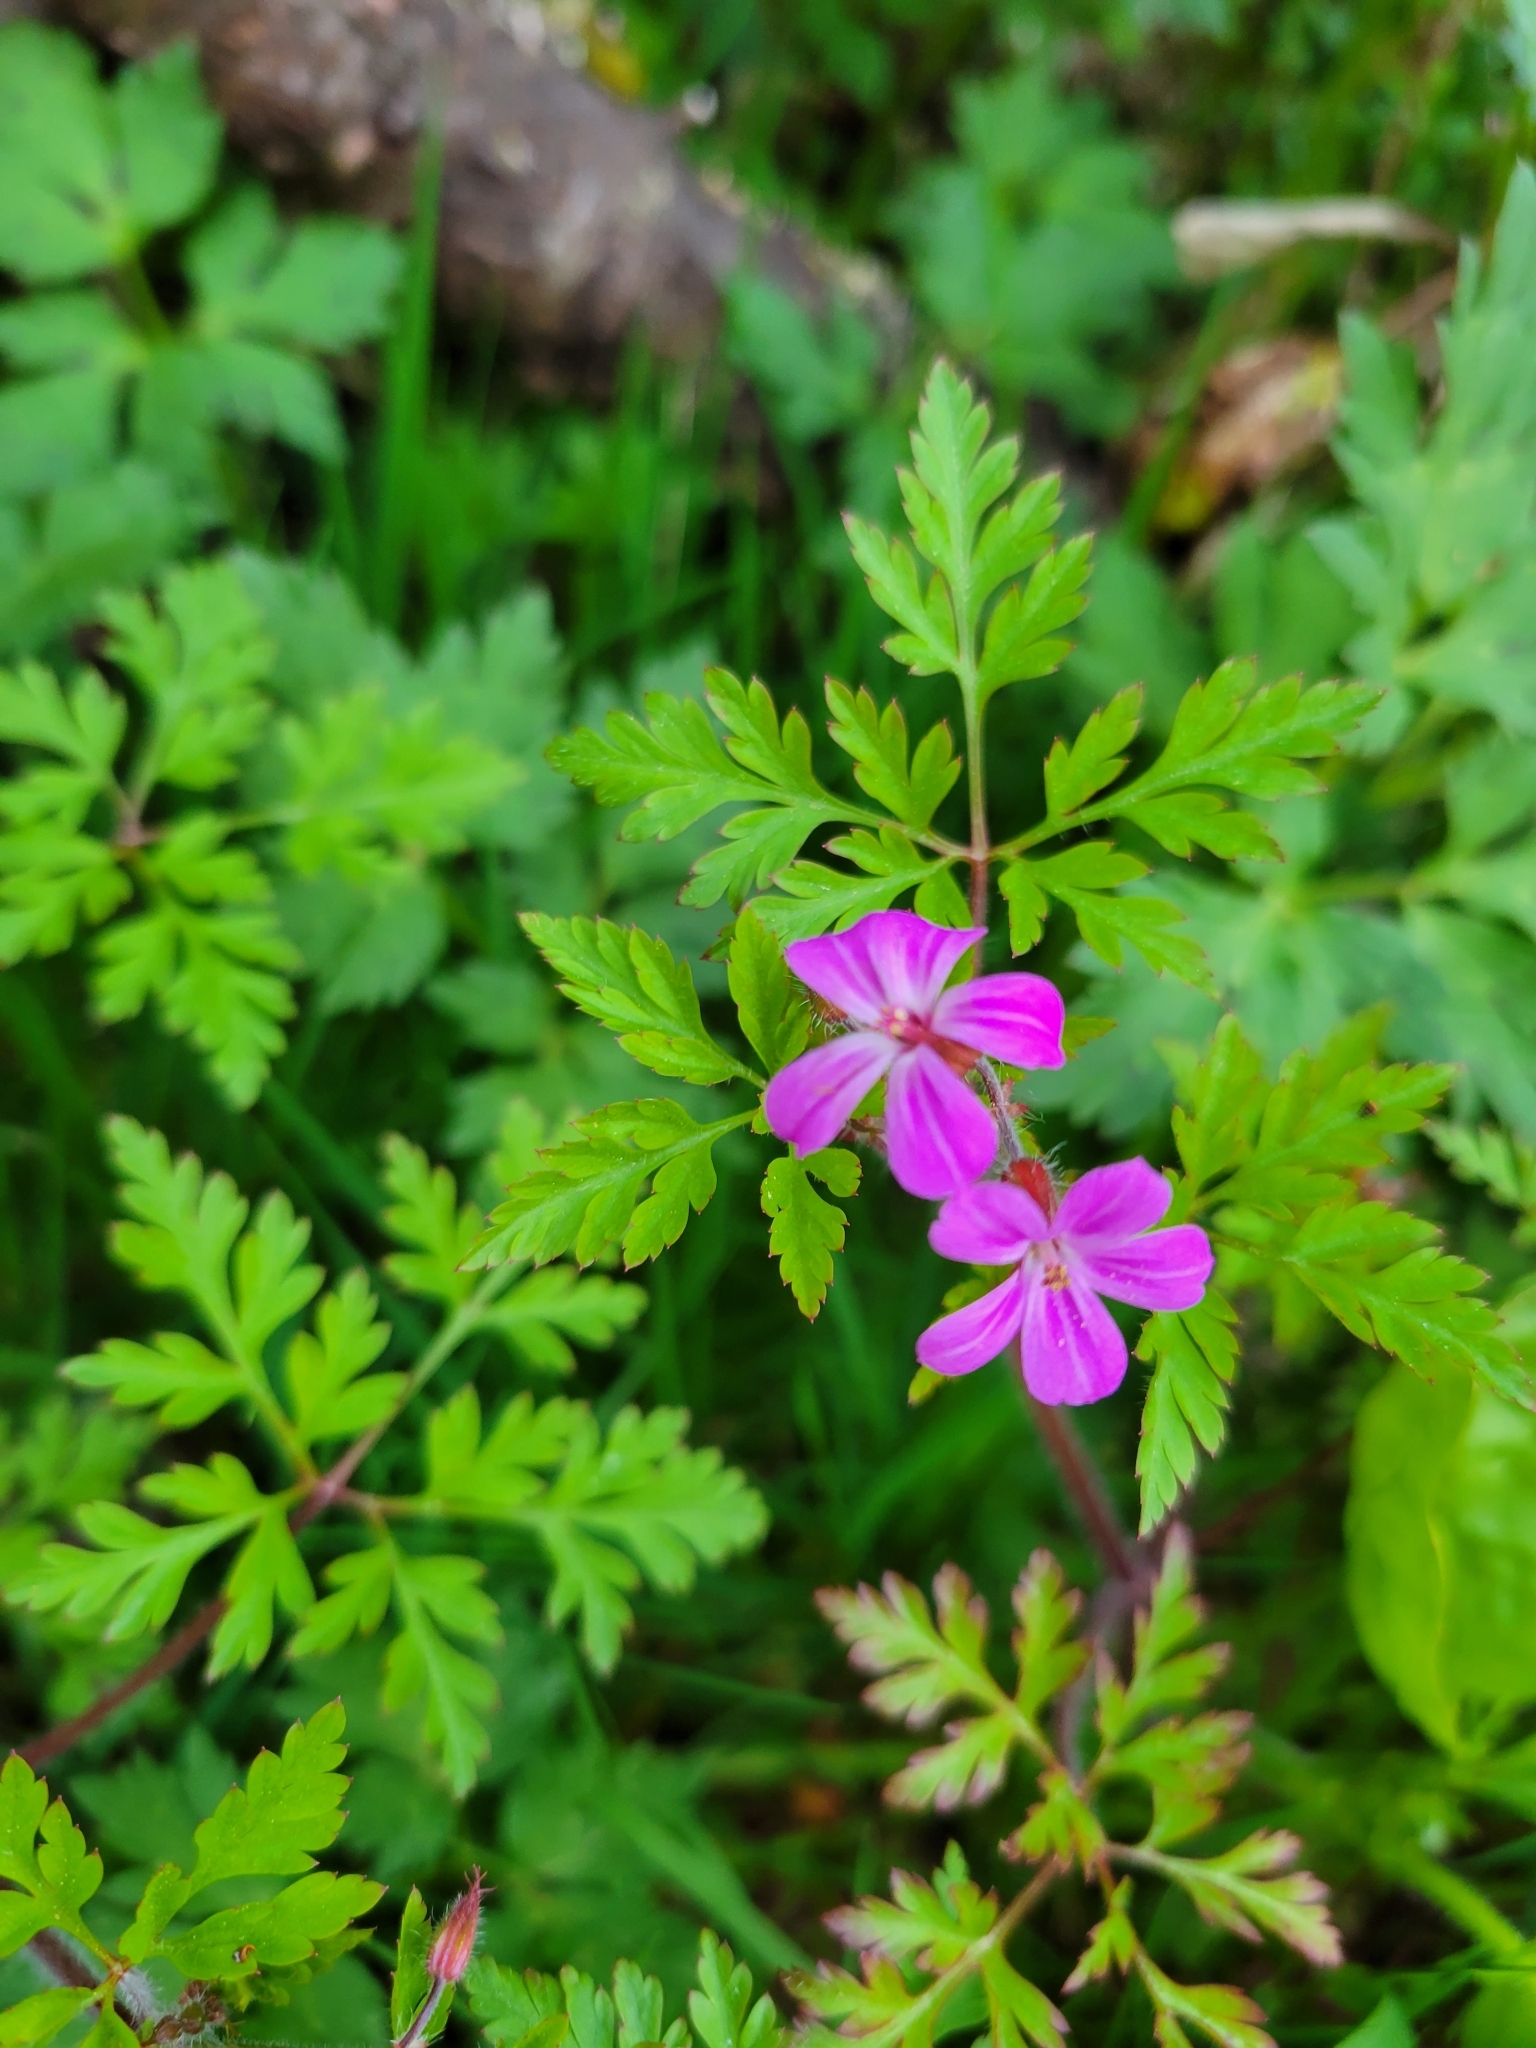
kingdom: Plantae
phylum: Tracheophyta
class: Magnoliopsida
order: Geraniales
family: Geraniaceae
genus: Geranium
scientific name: Geranium robertianum
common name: Herb-robert
